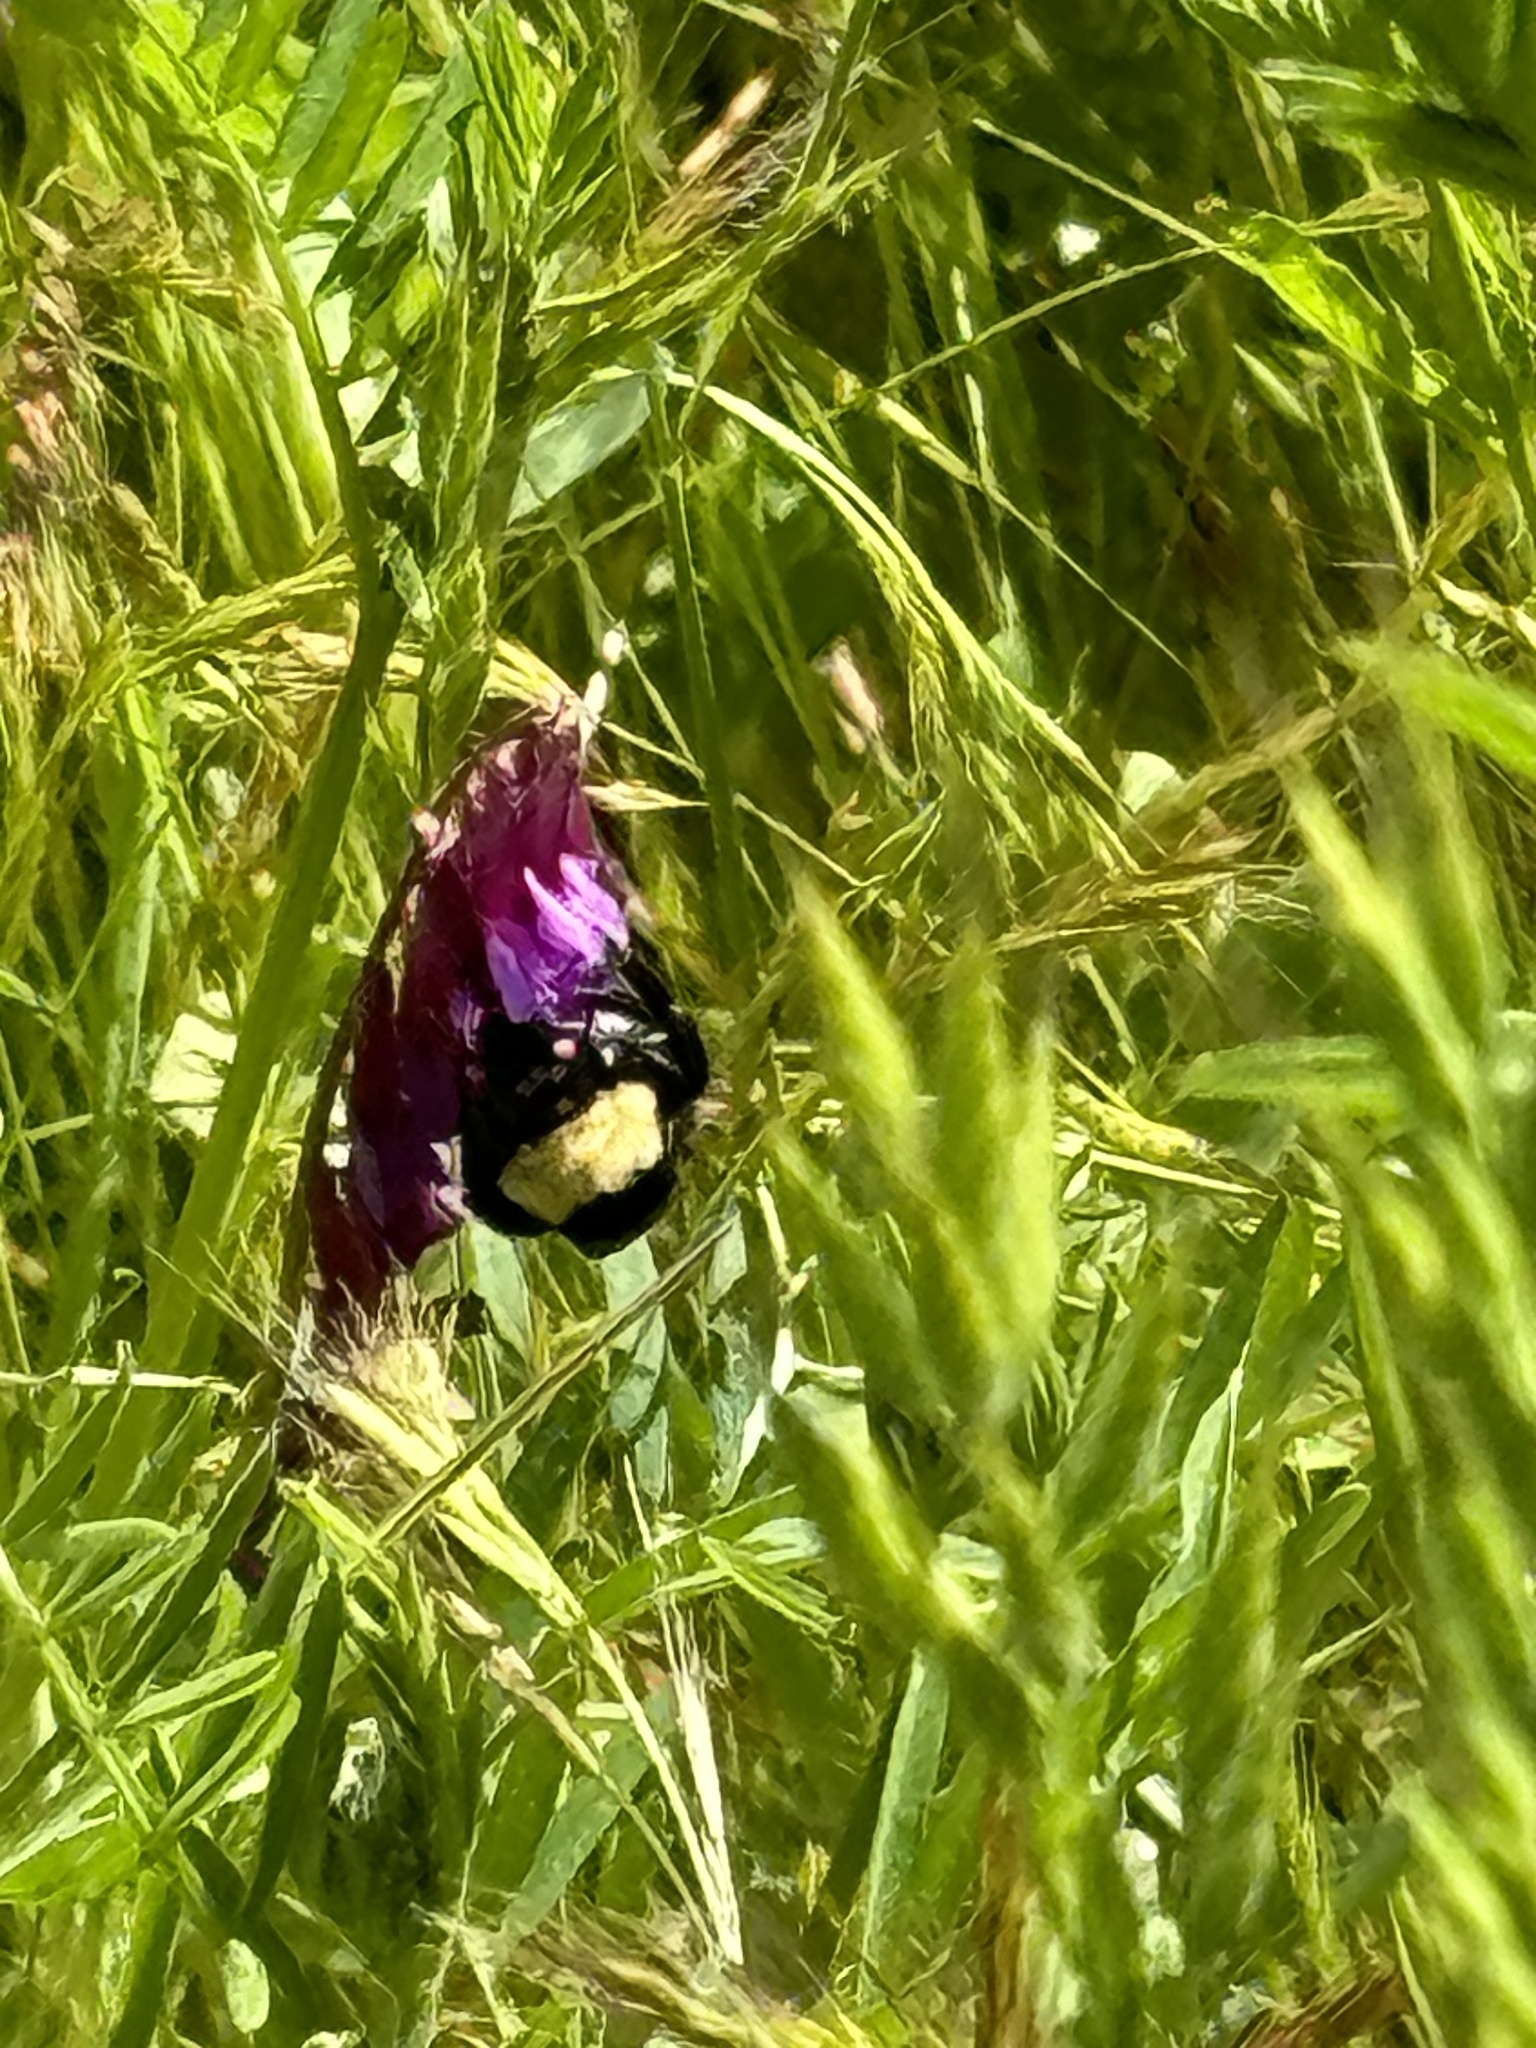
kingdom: Animalia
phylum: Arthropoda
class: Insecta
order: Hymenoptera
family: Apidae
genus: Bombus
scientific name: Bombus californicus
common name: California bumble bee
